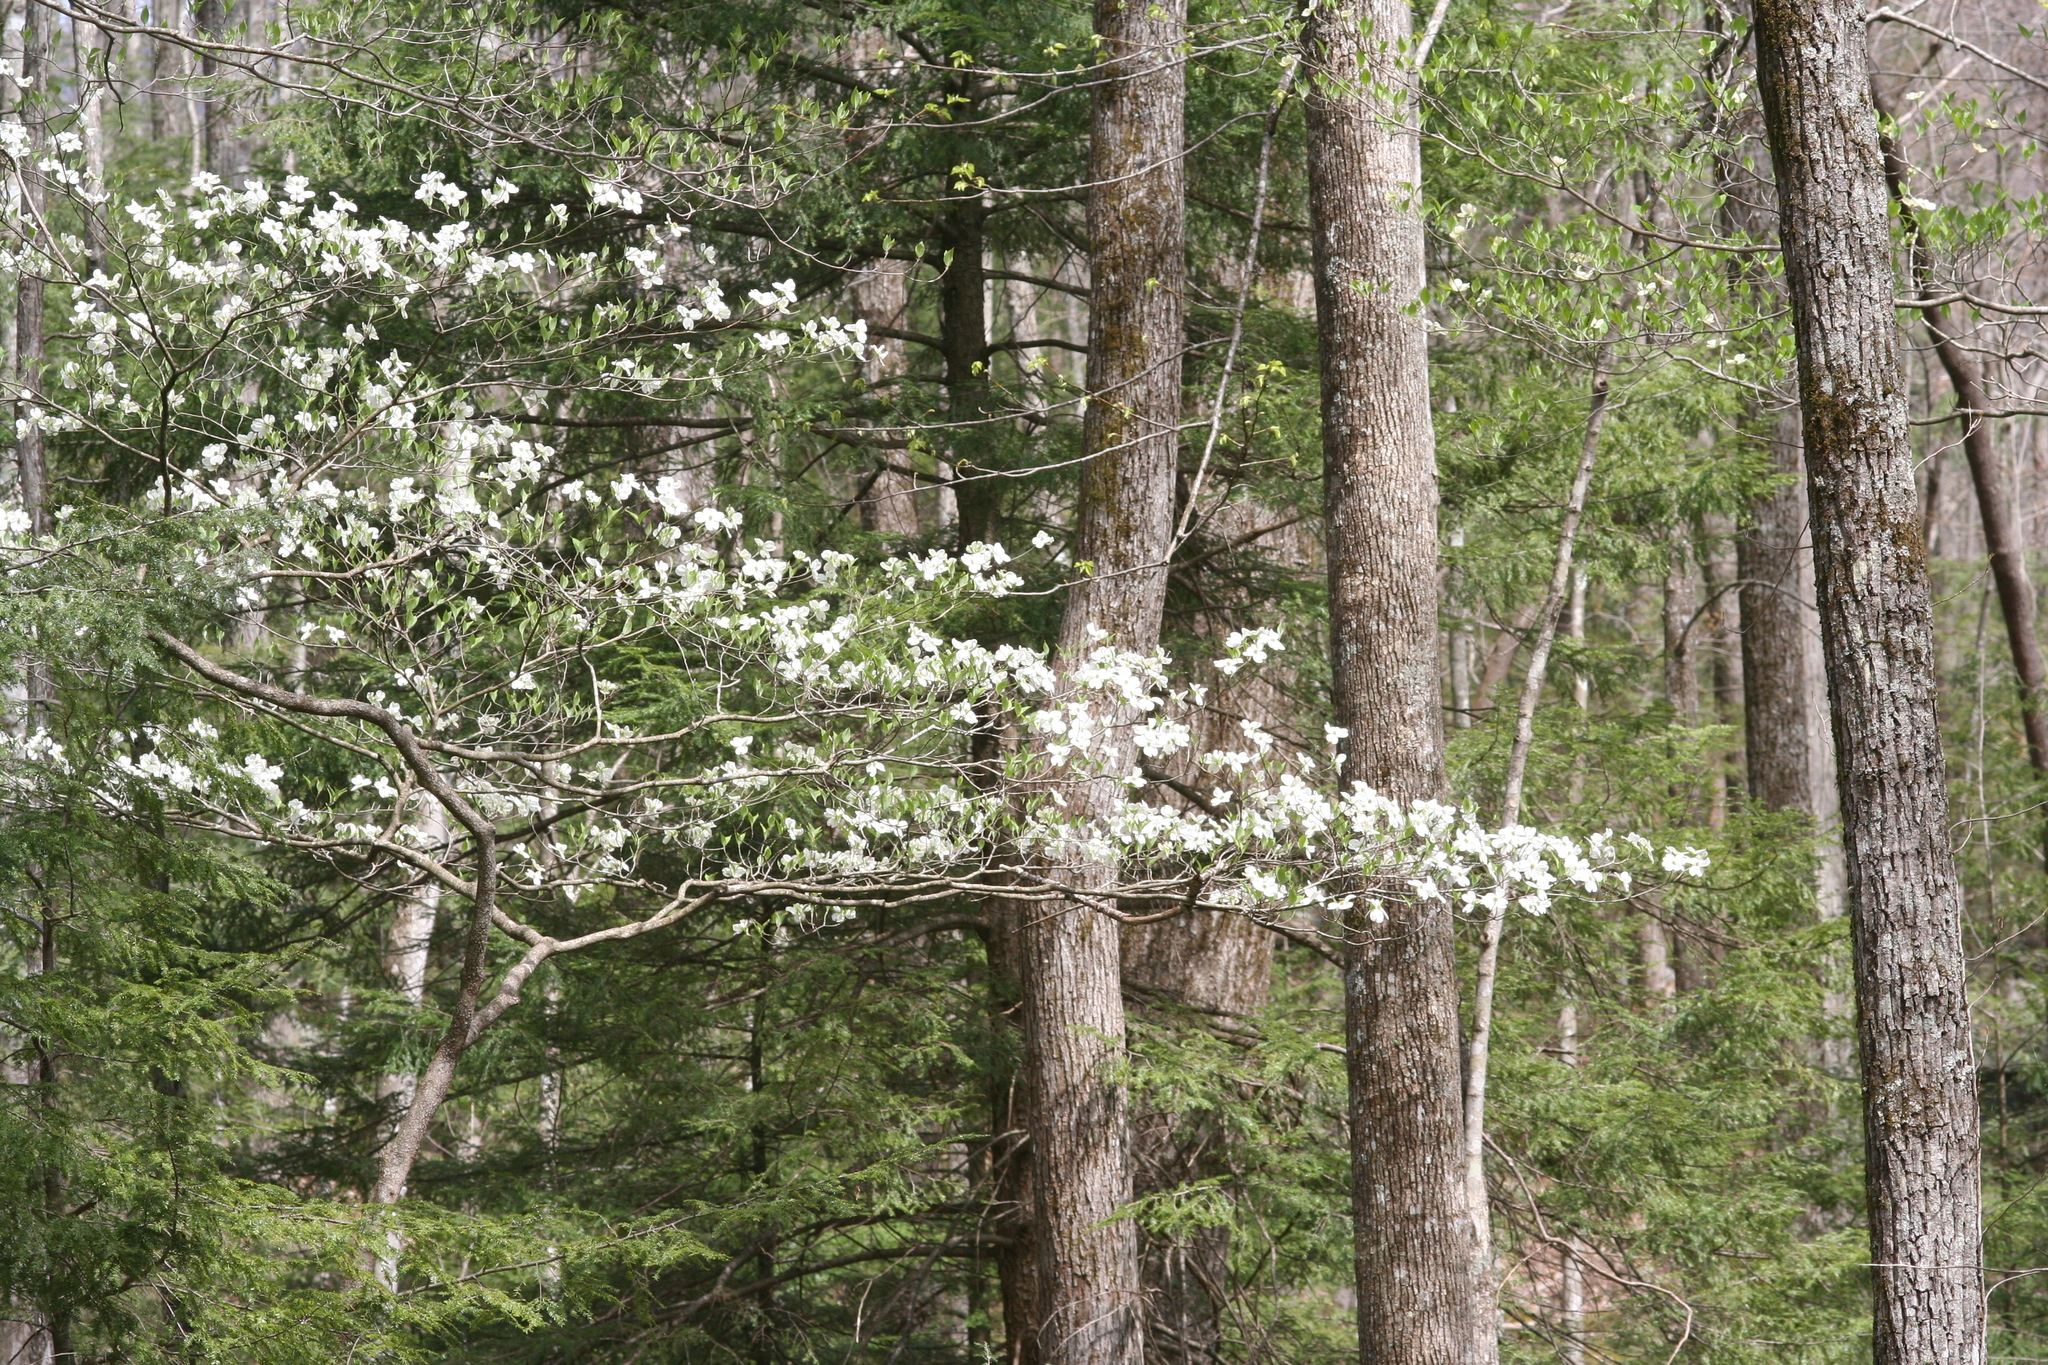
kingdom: Plantae
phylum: Tracheophyta
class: Magnoliopsida
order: Cornales
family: Cornaceae
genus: Cornus
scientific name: Cornus florida
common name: Flowering dogwood
